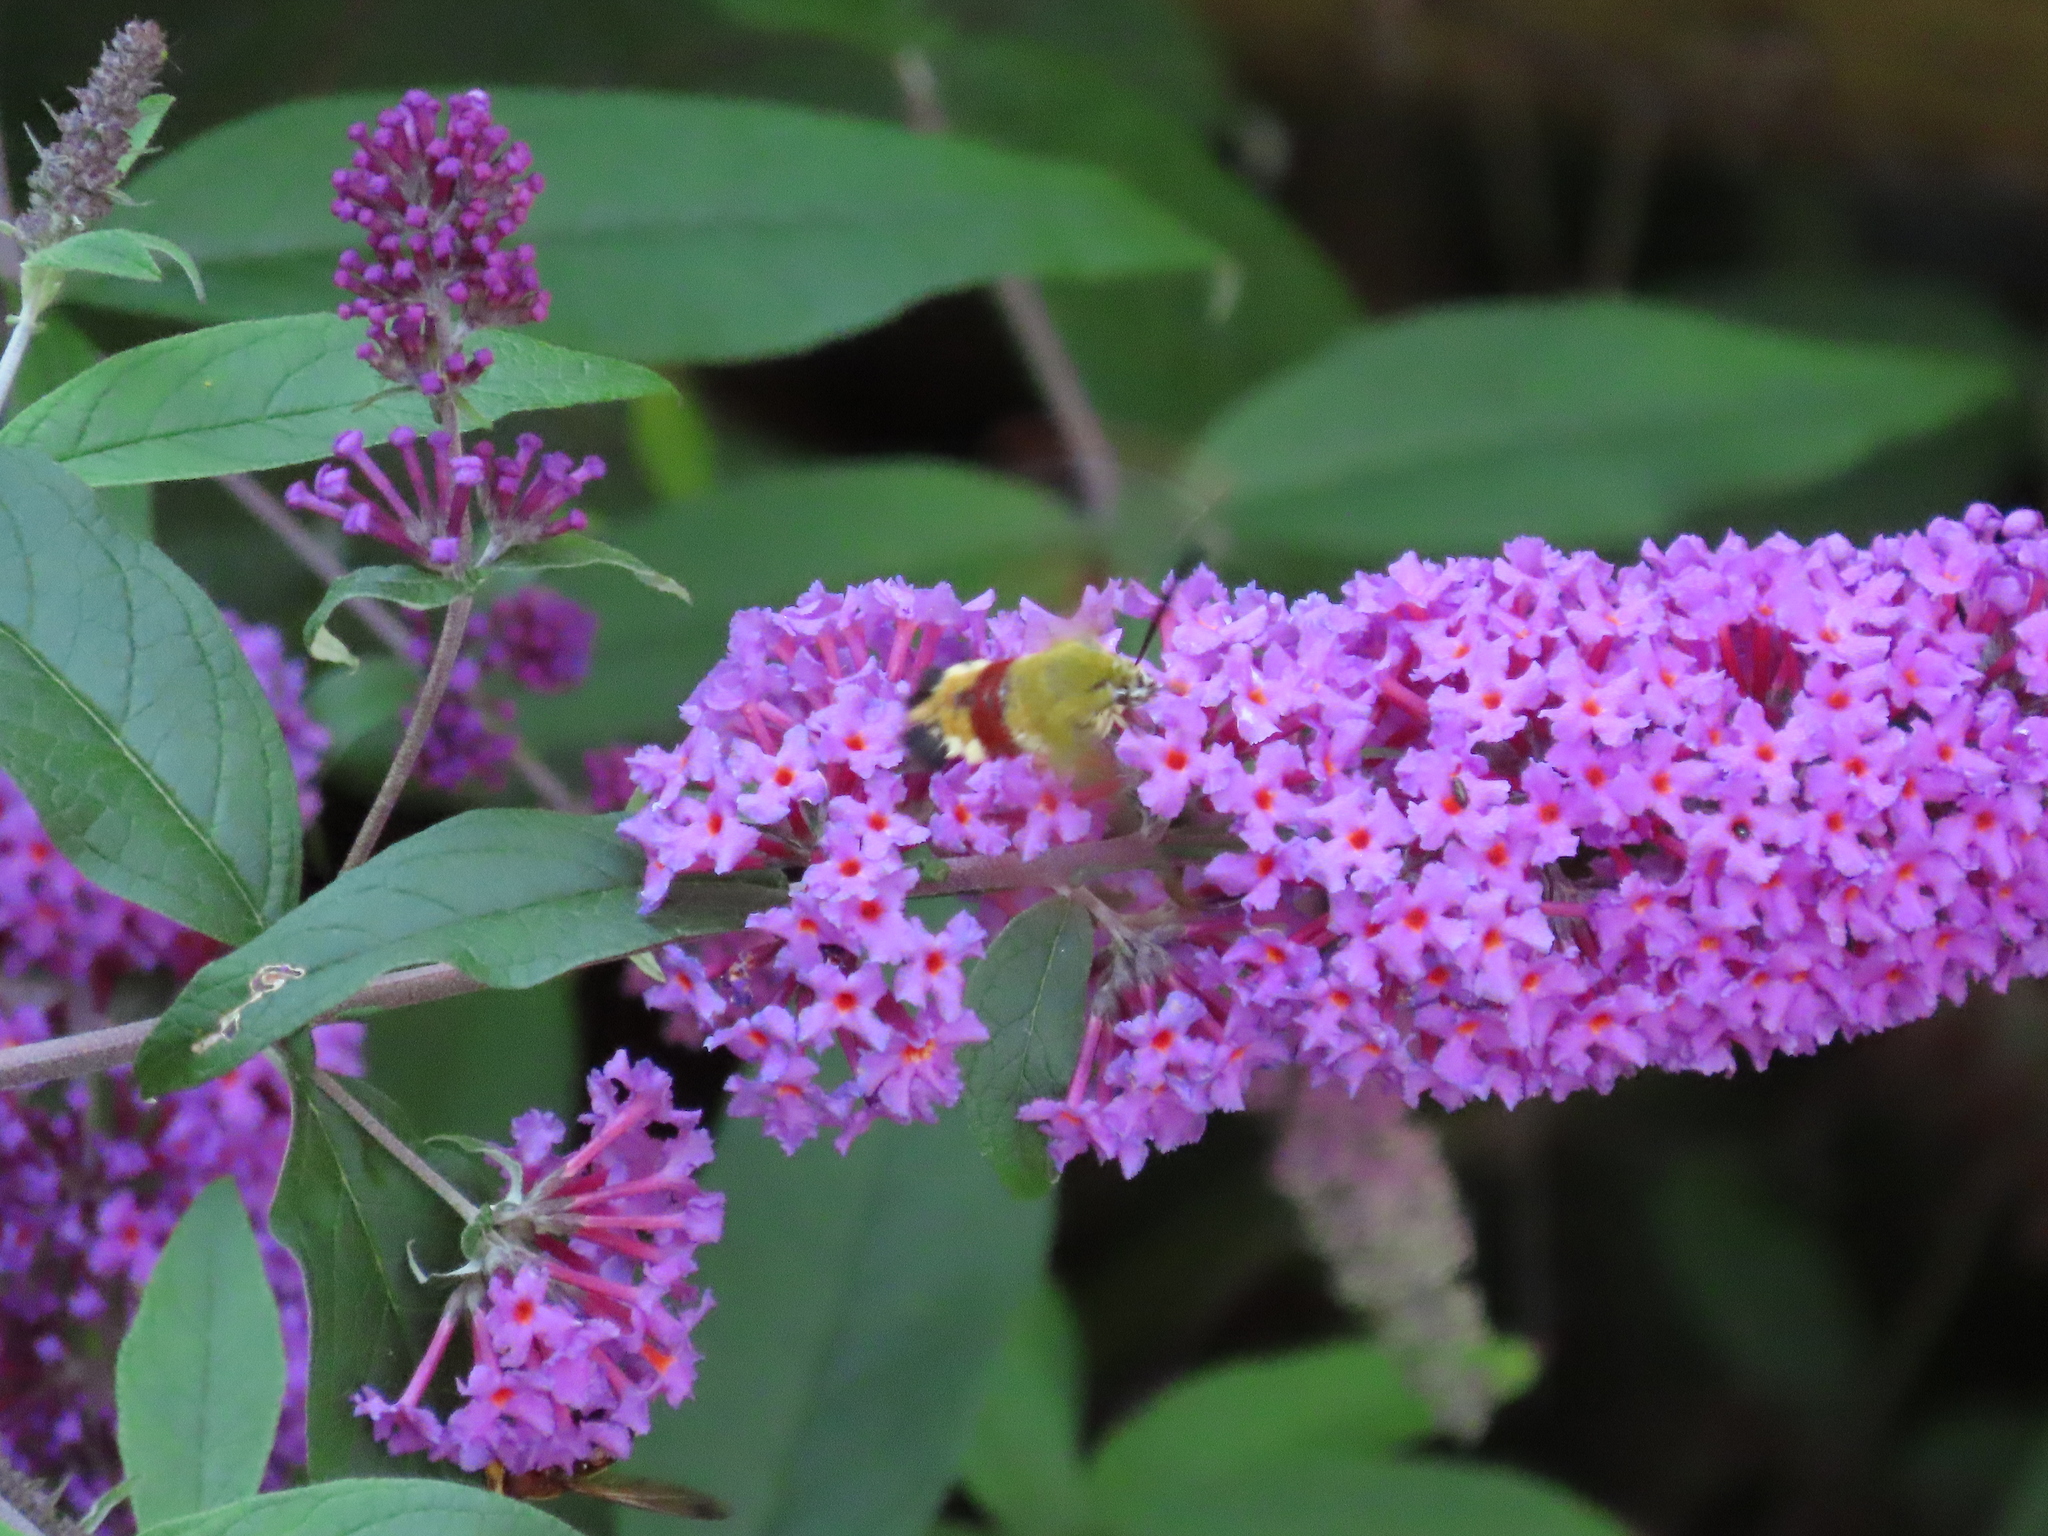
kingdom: Animalia
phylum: Arthropoda
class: Insecta
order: Lepidoptera
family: Sphingidae
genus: Hemaris
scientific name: Hemaris fuciformis
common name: Broad-bordered bee hawk-moth
